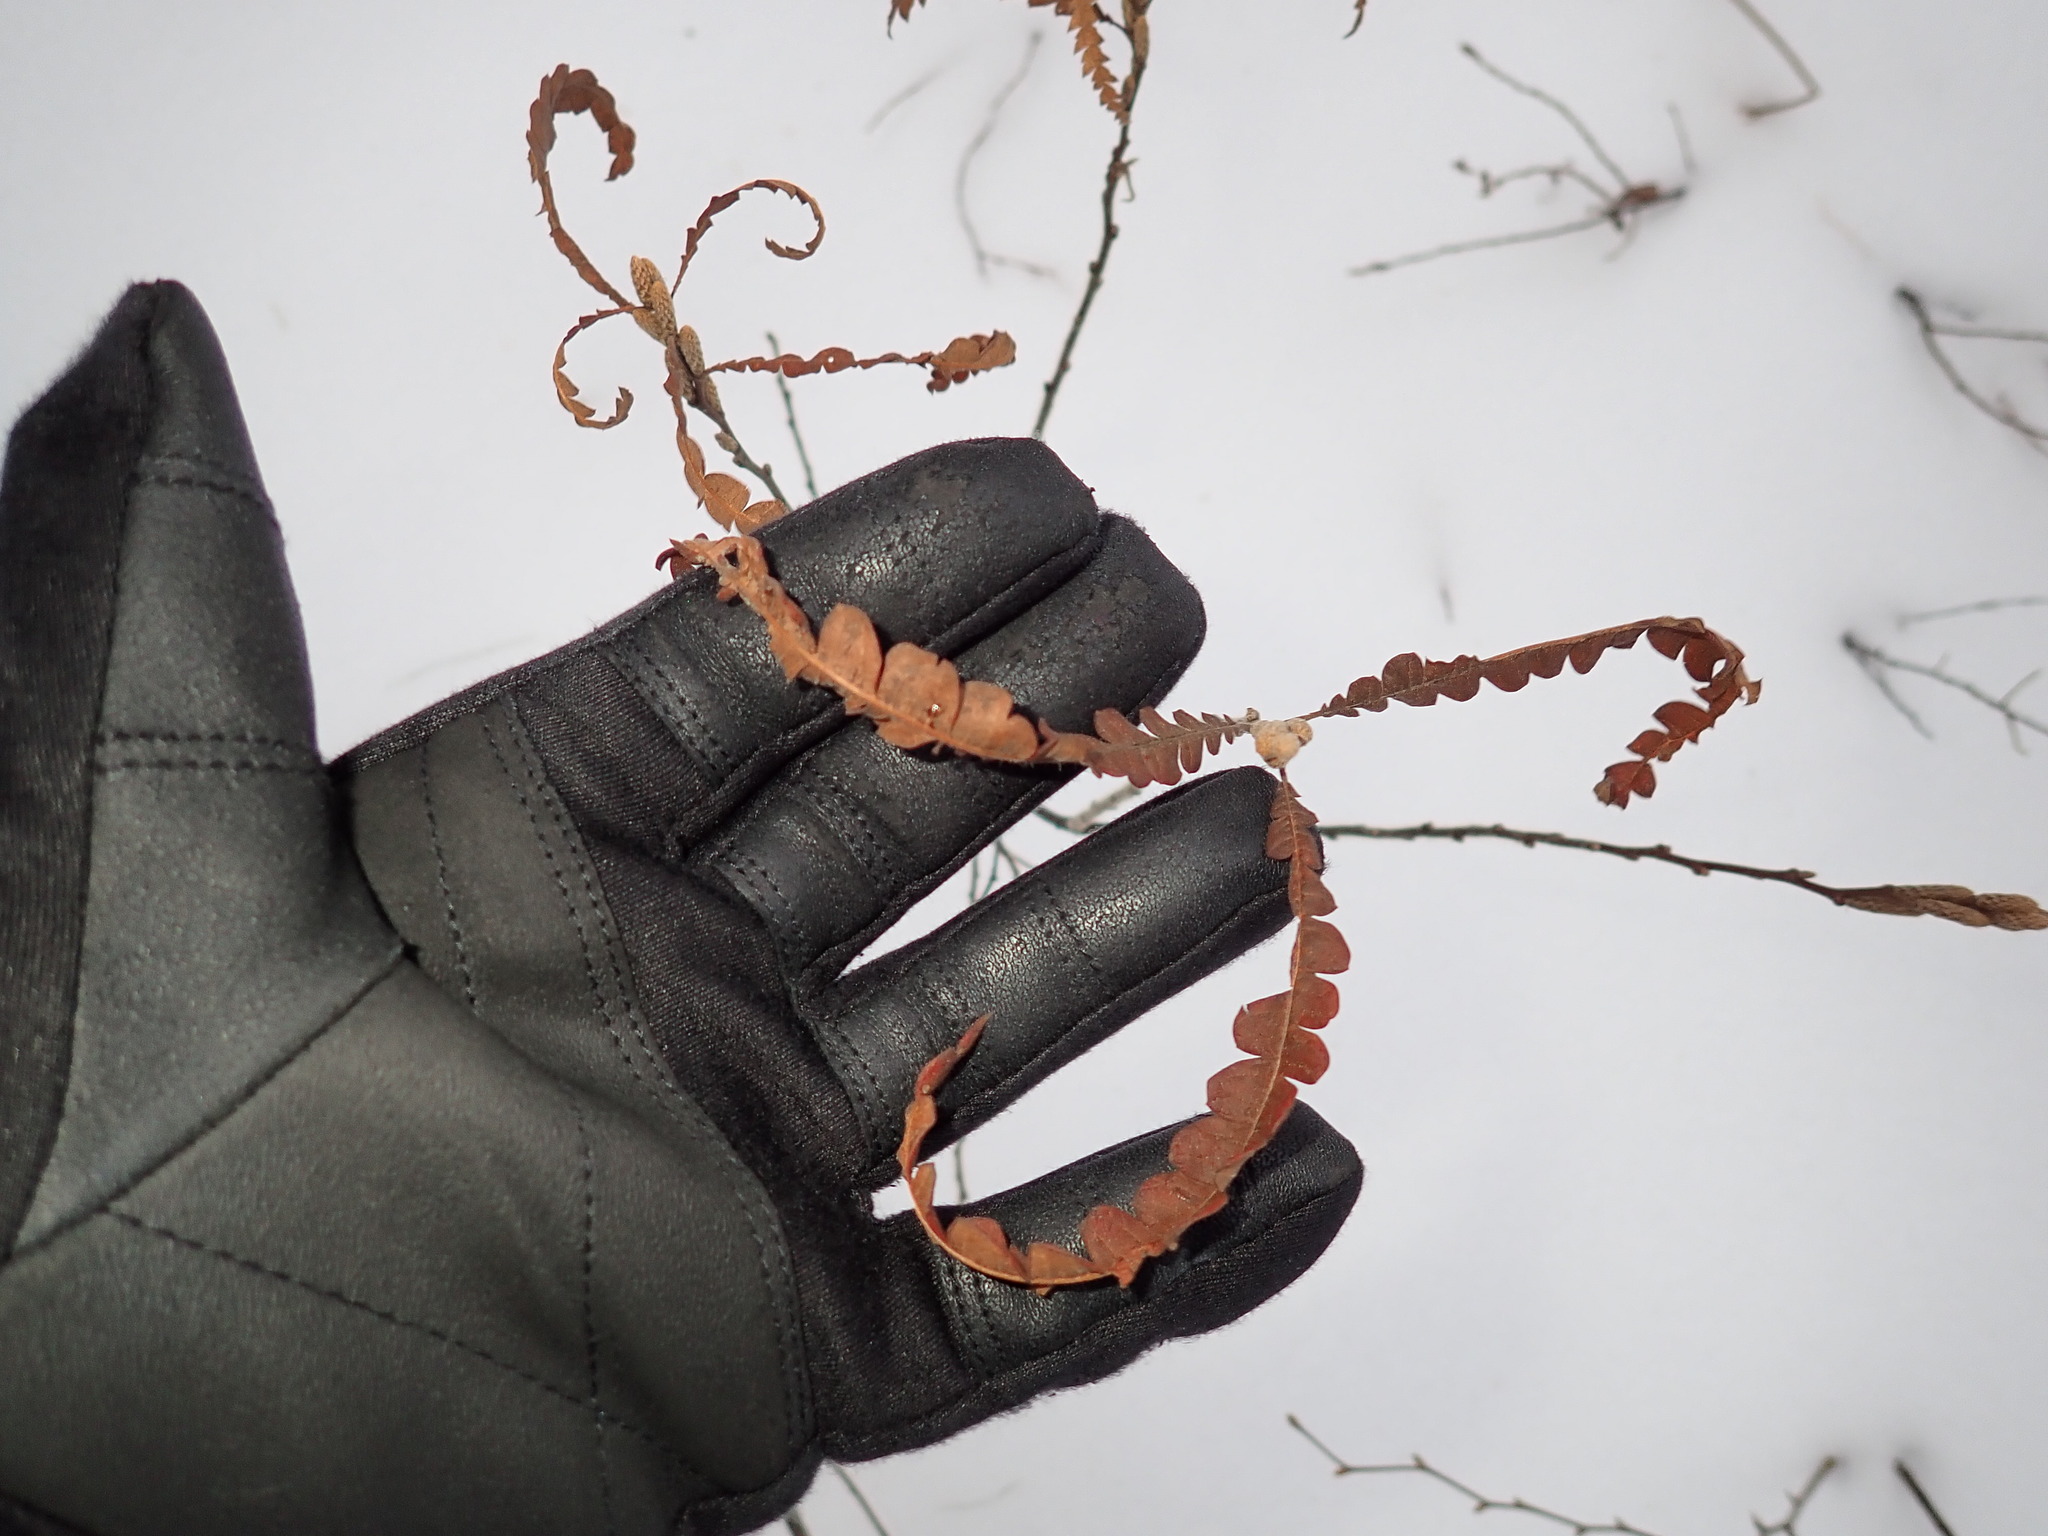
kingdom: Plantae
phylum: Tracheophyta
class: Magnoliopsida
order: Fagales
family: Myricaceae
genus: Comptonia
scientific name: Comptonia peregrina
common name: Sweet-fern
